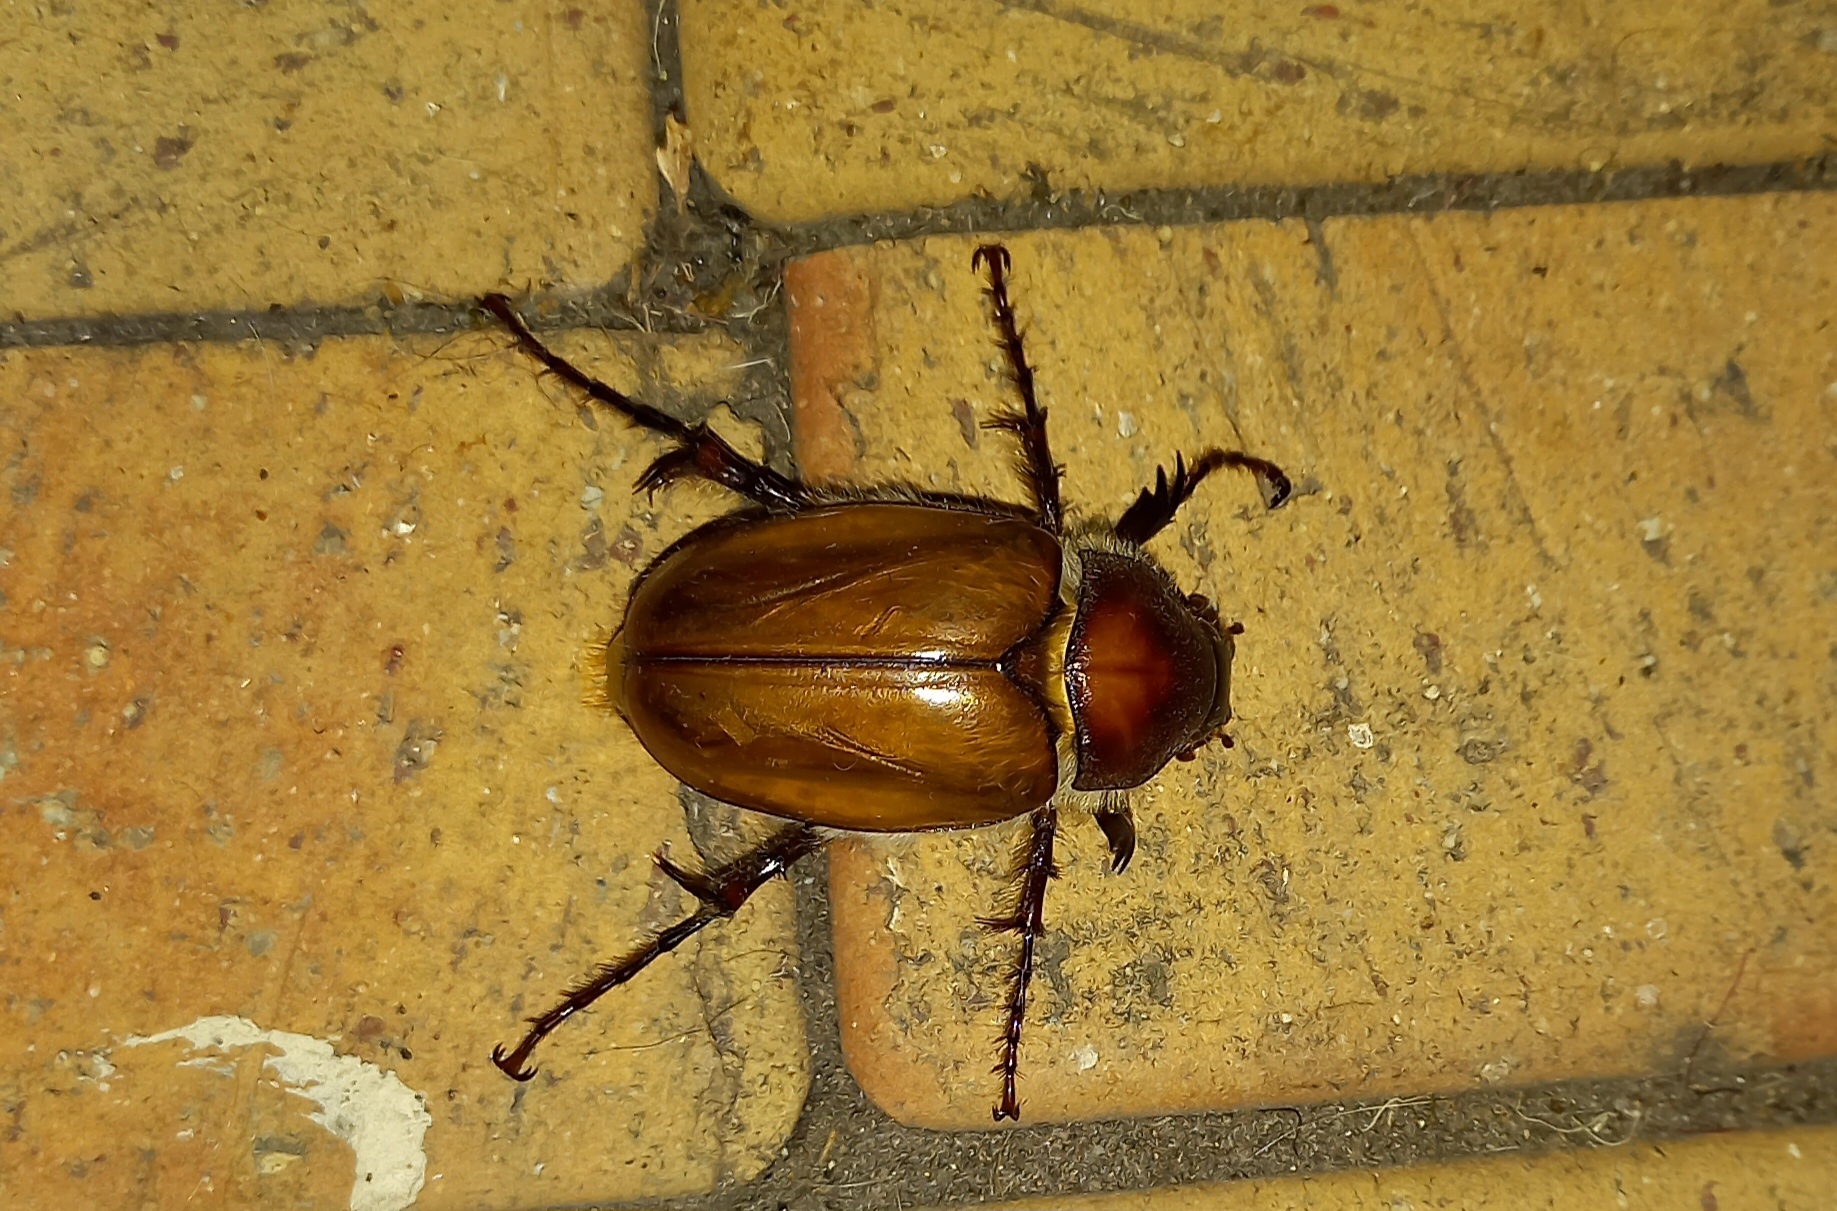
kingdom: Animalia
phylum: Arthropoda
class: Insecta
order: Coleoptera
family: Scarabaeidae
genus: Pachytricha
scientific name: Pachytricha tecta
